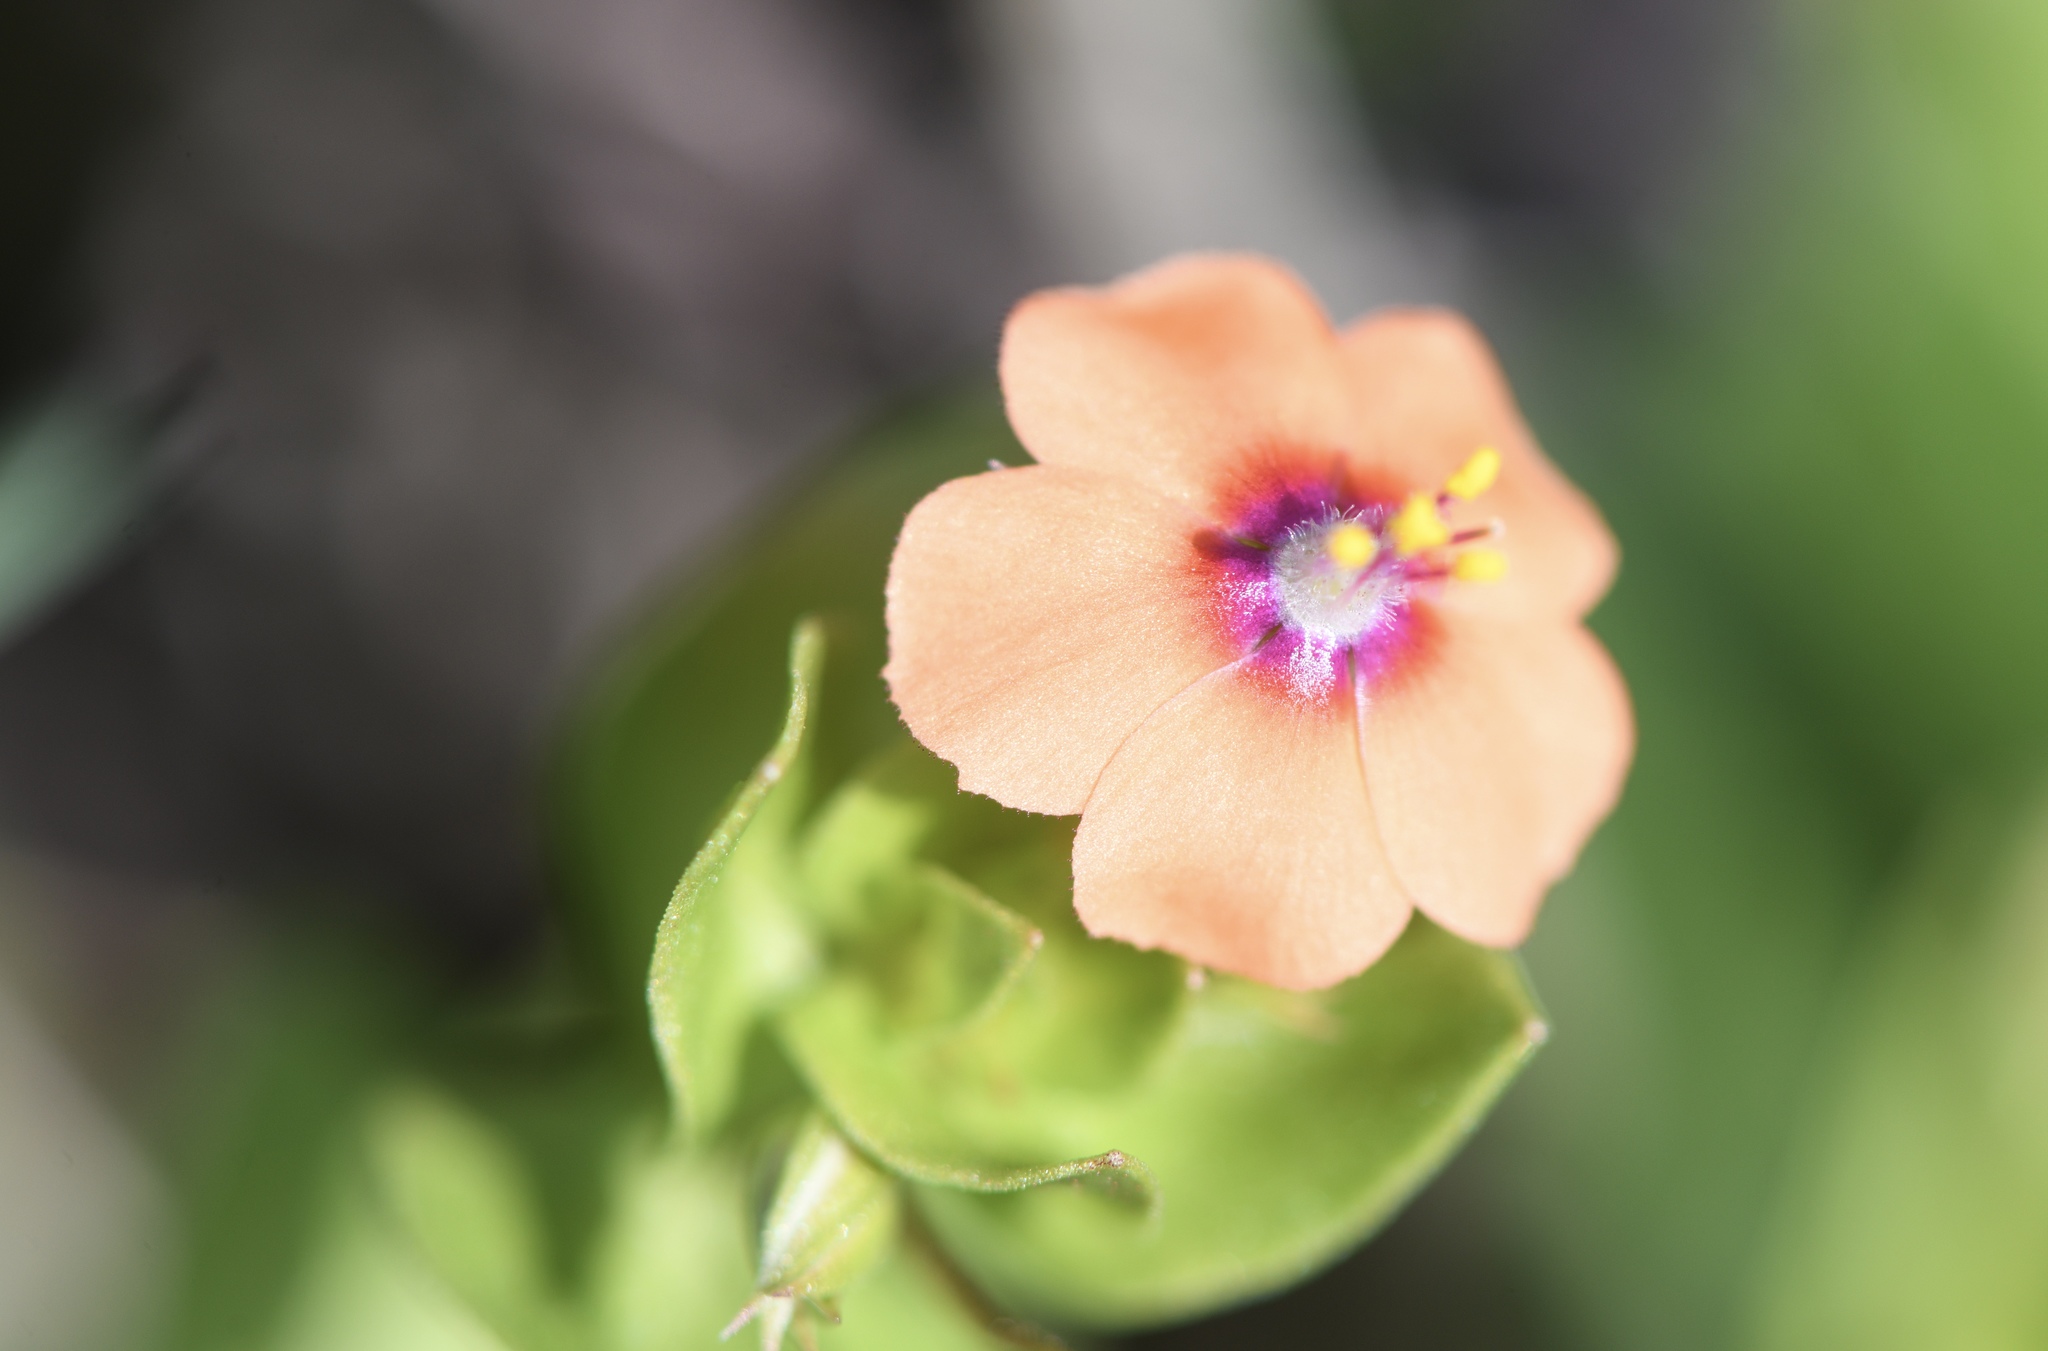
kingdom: Plantae
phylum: Tracheophyta
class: Magnoliopsida
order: Ericales
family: Primulaceae
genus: Lysimachia
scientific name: Lysimachia arvensis
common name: Scarlet pimpernel
